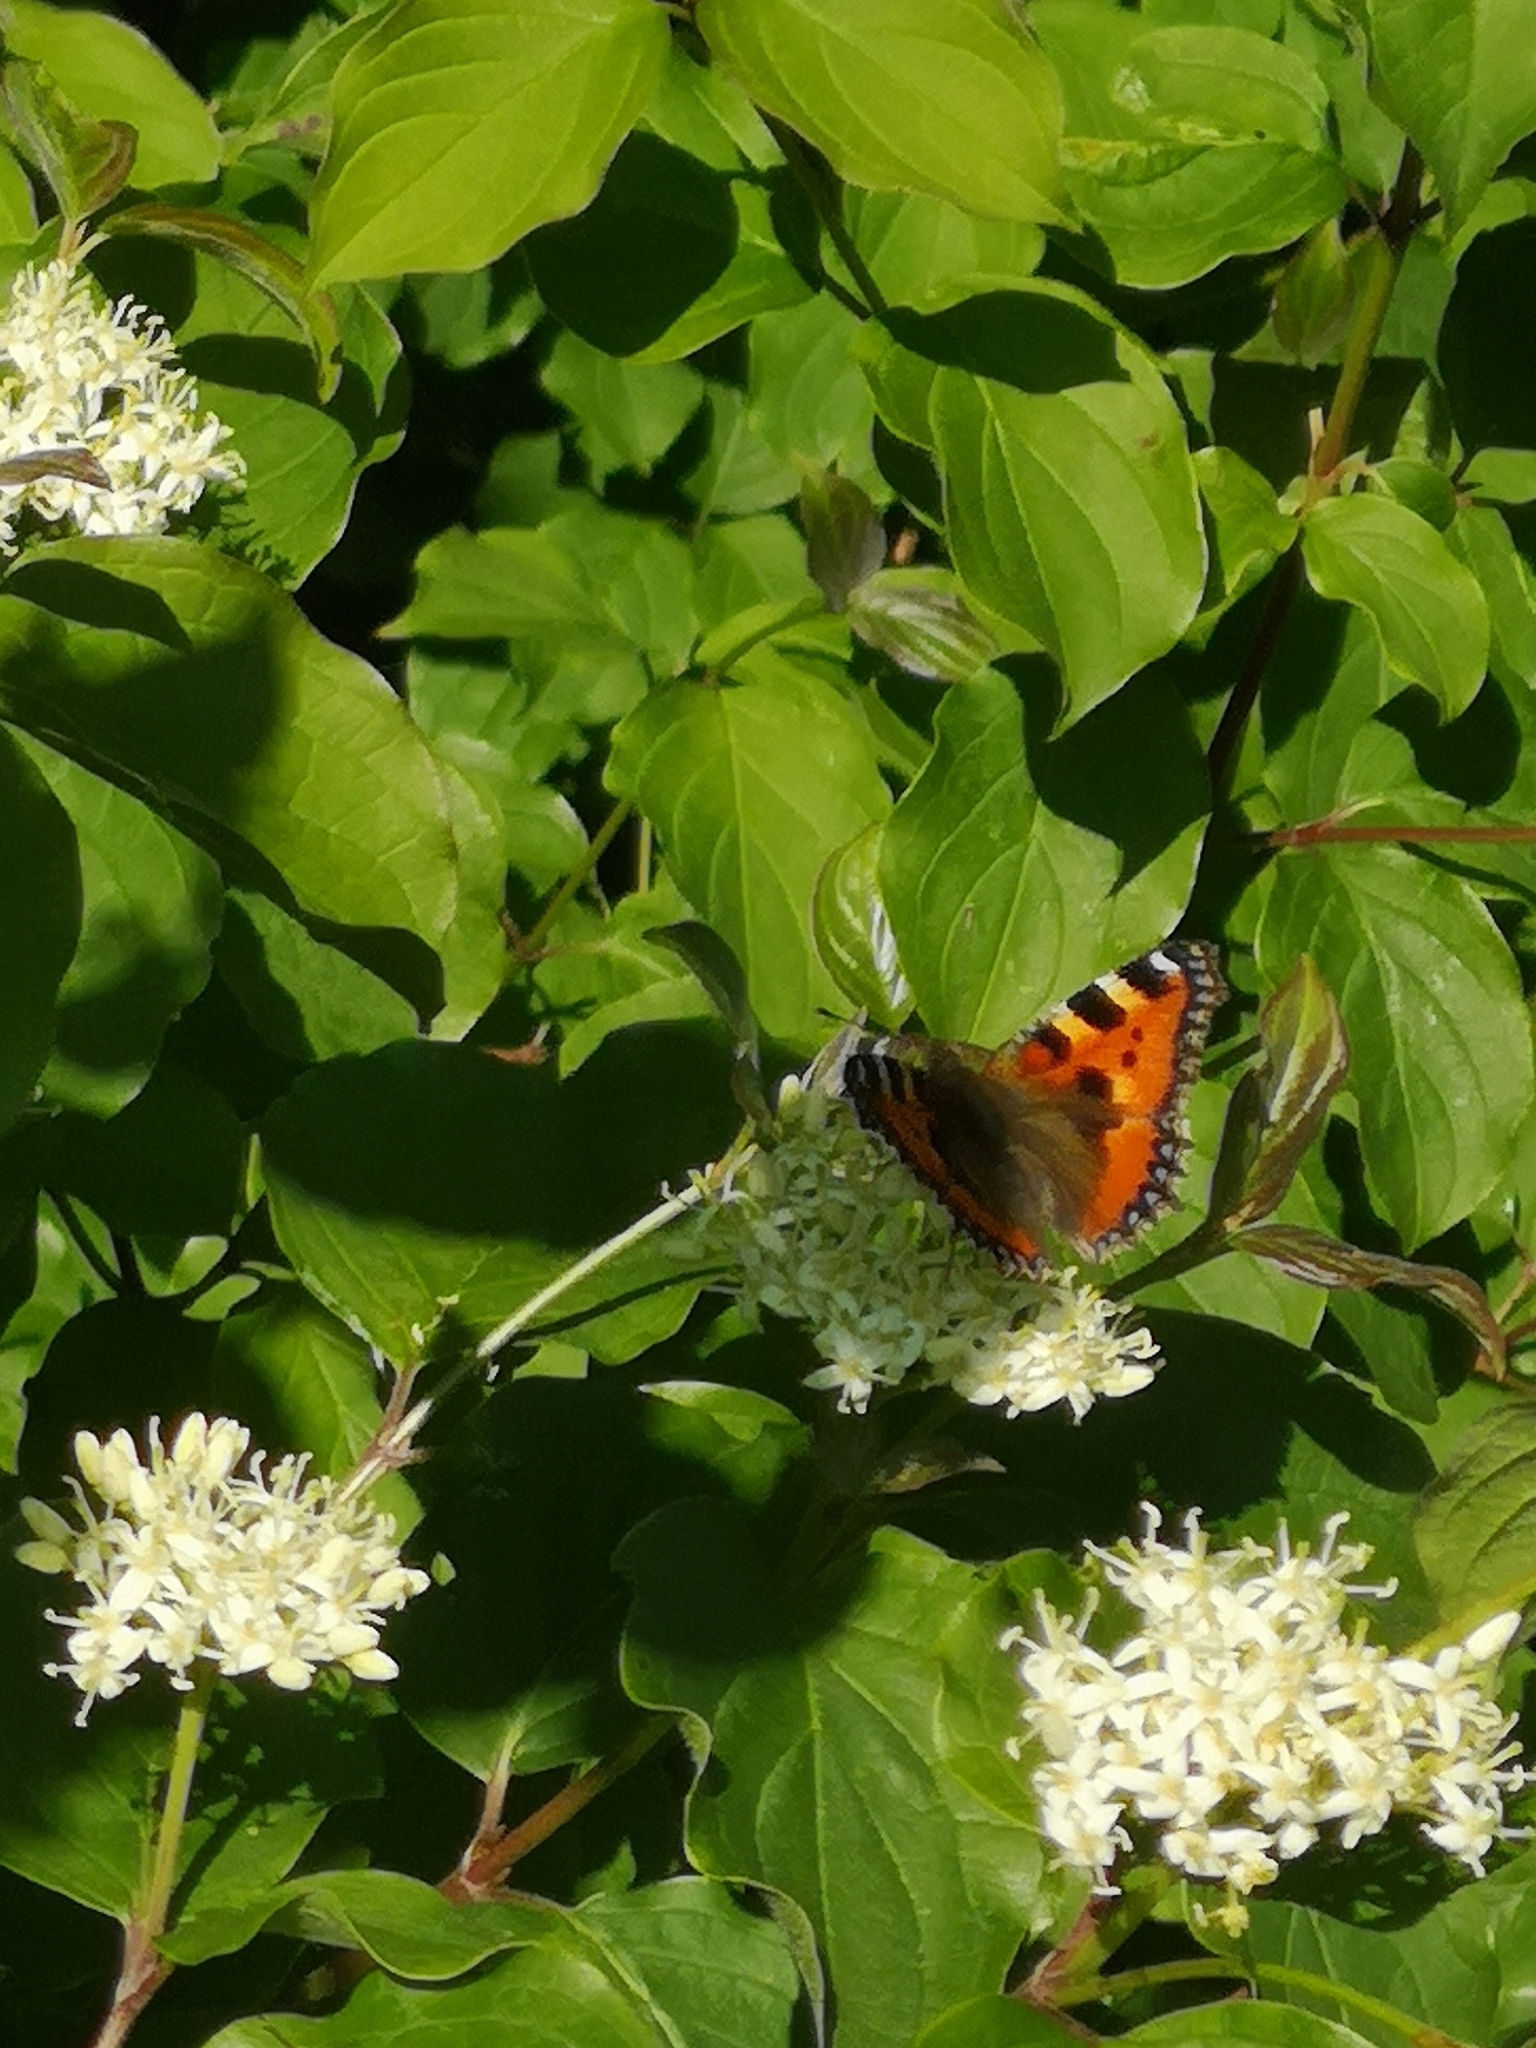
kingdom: Animalia
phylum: Arthropoda
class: Insecta
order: Lepidoptera
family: Nymphalidae
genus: Aglais
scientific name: Aglais urticae
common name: Small tortoiseshell
